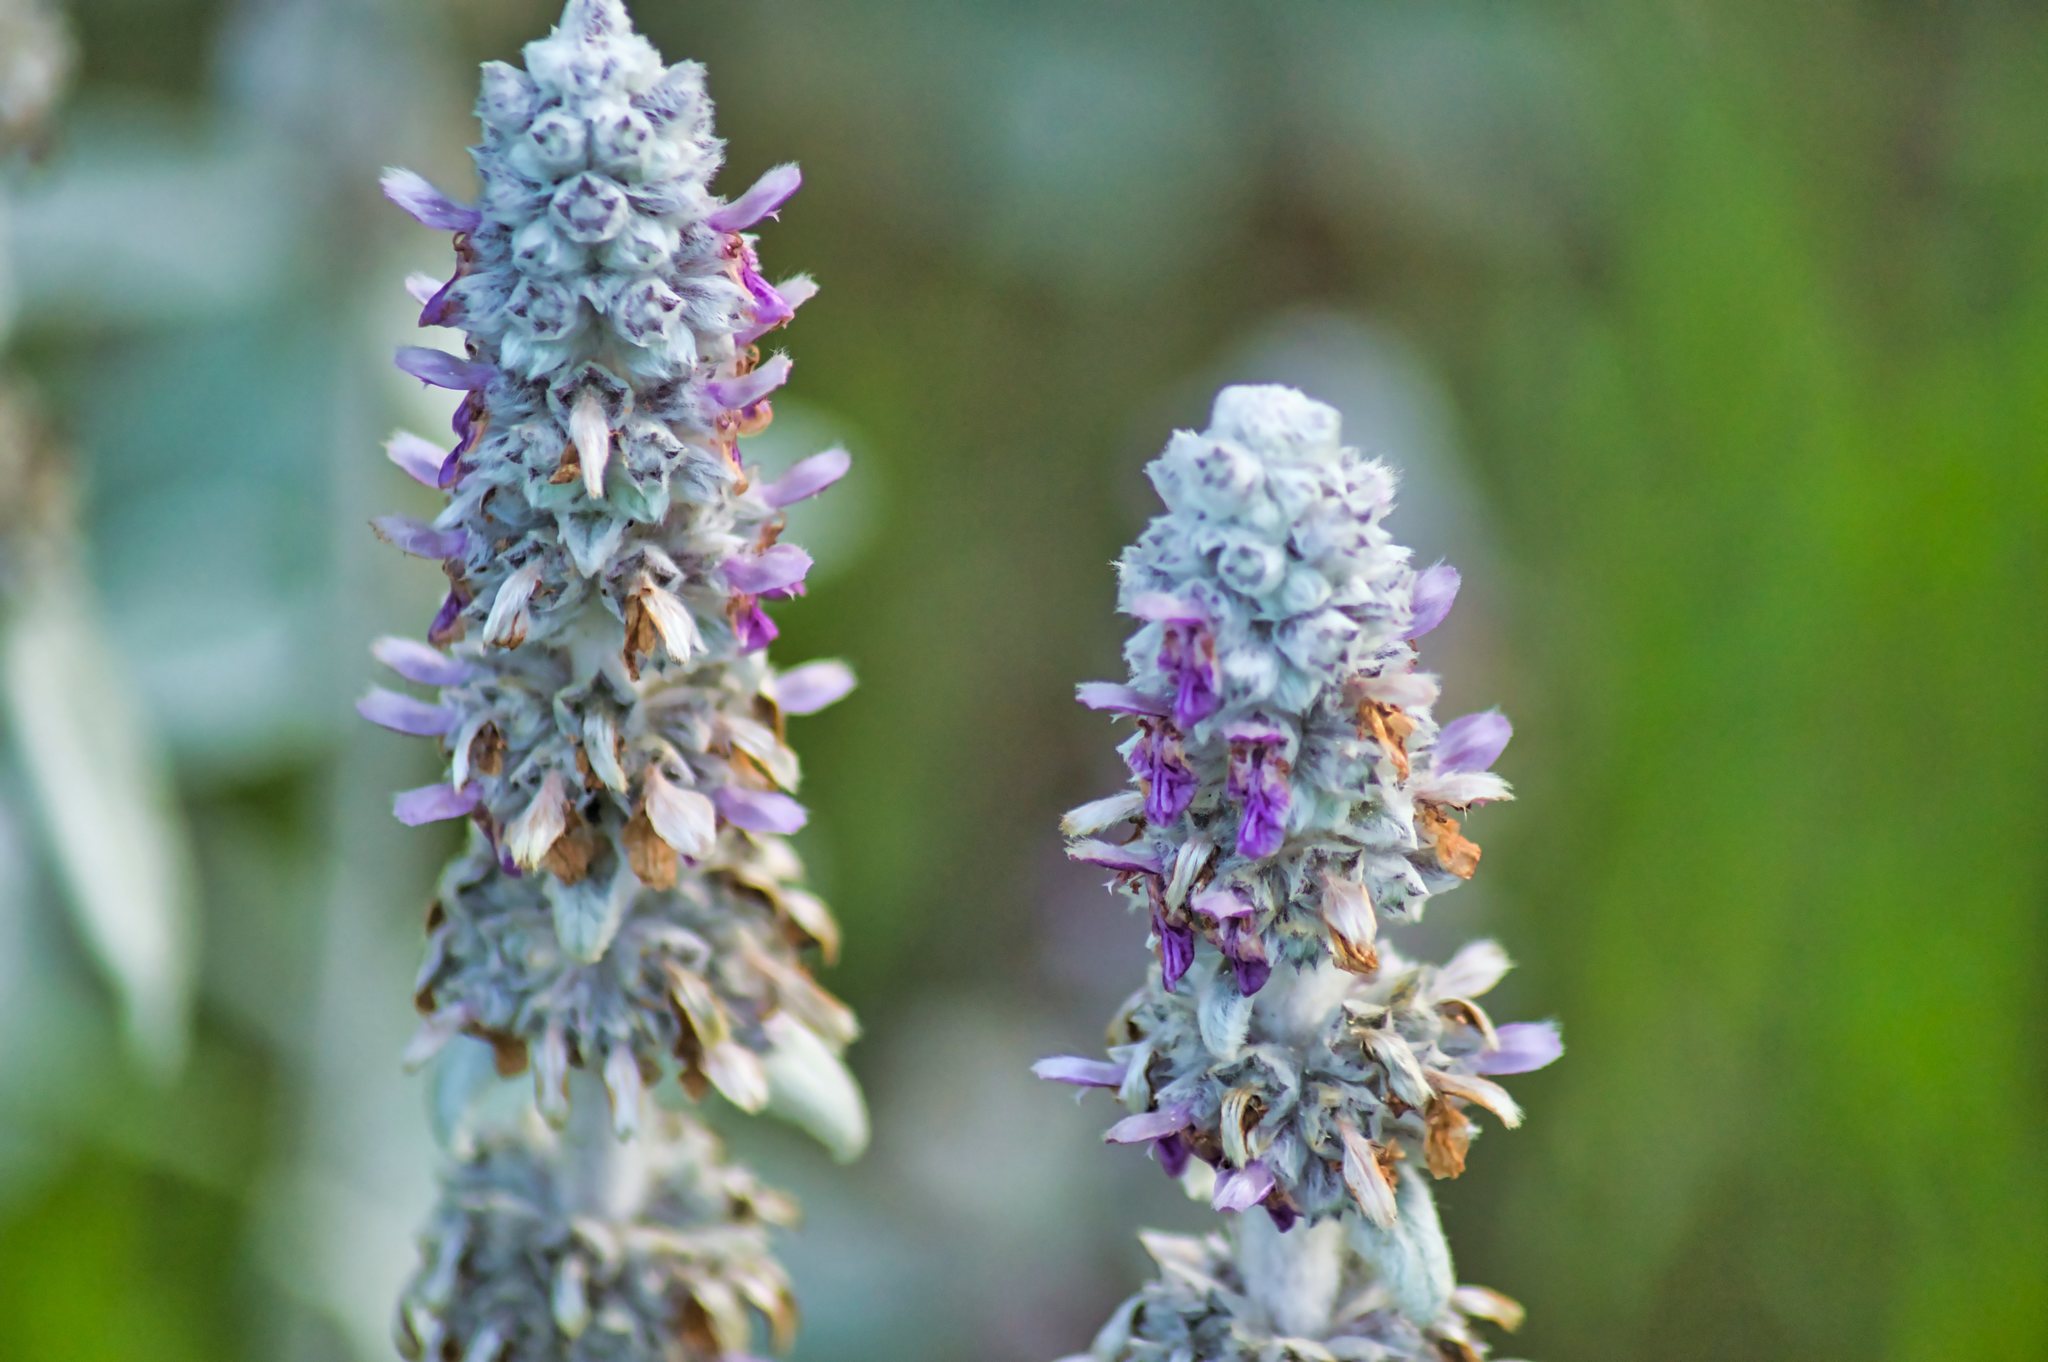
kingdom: Plantae
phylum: Tracheophyta
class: Magnoliopsida
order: Lamiales
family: Lamiaceae
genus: Stachys
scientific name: Stachys byzantina
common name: Lamb's-ear
